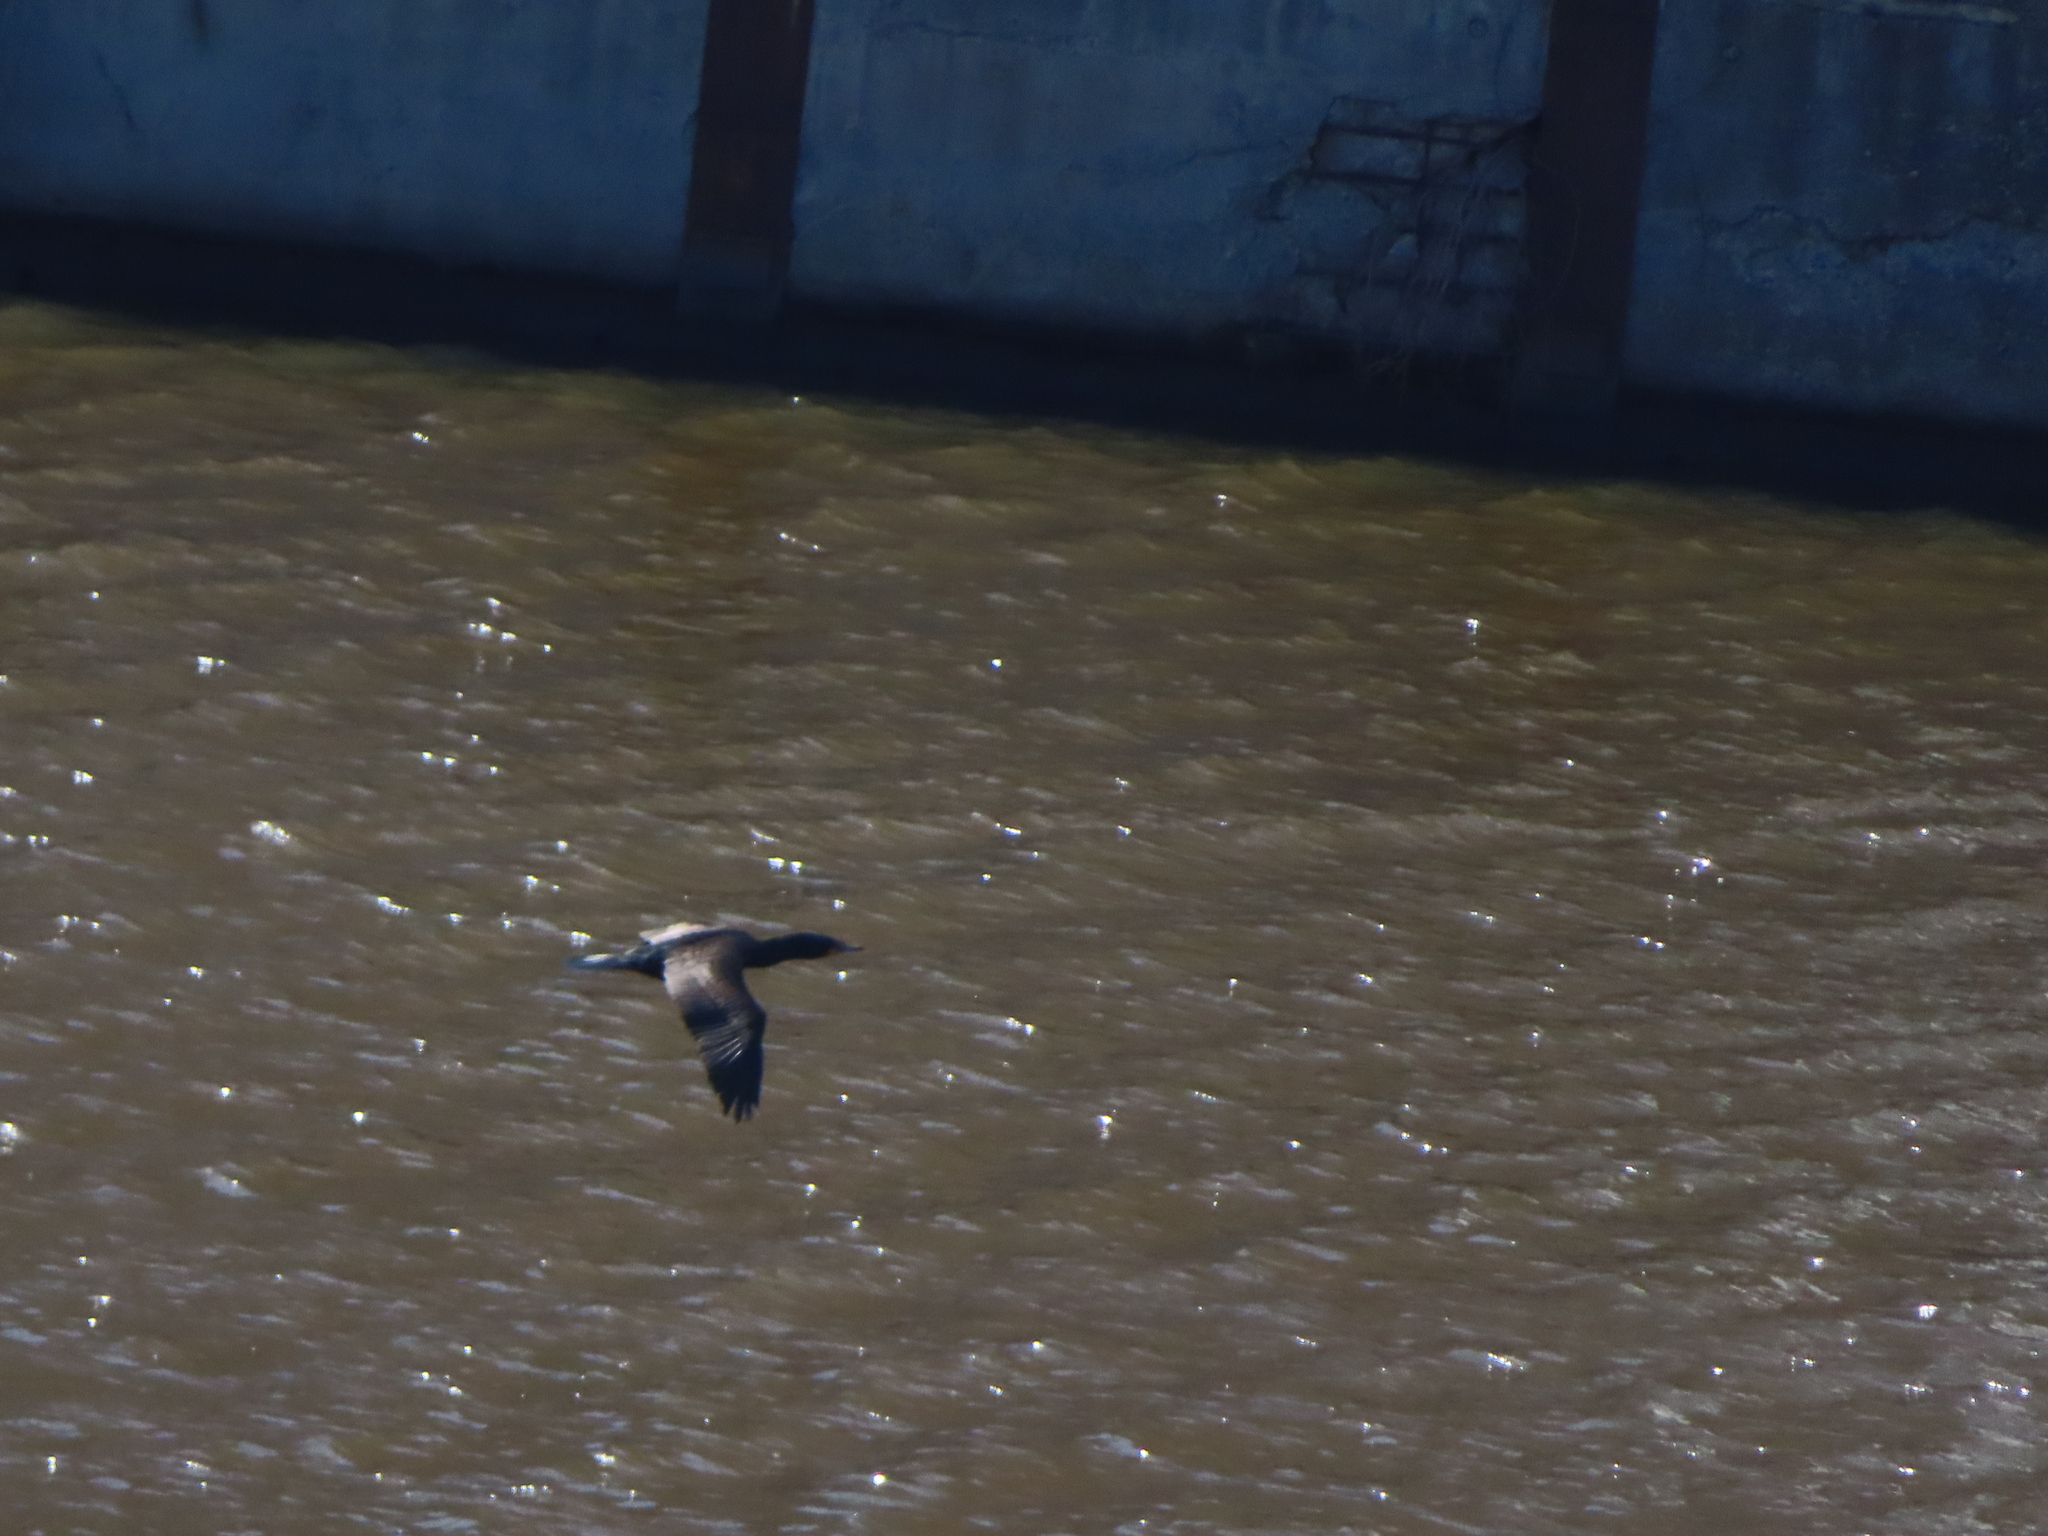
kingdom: Animalia
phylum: Chordata
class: Aves
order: Suliformes
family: Phalacrocoracidae
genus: Phalacrocorax
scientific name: Phalacrocorax auritus
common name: Double-crested cormorant
